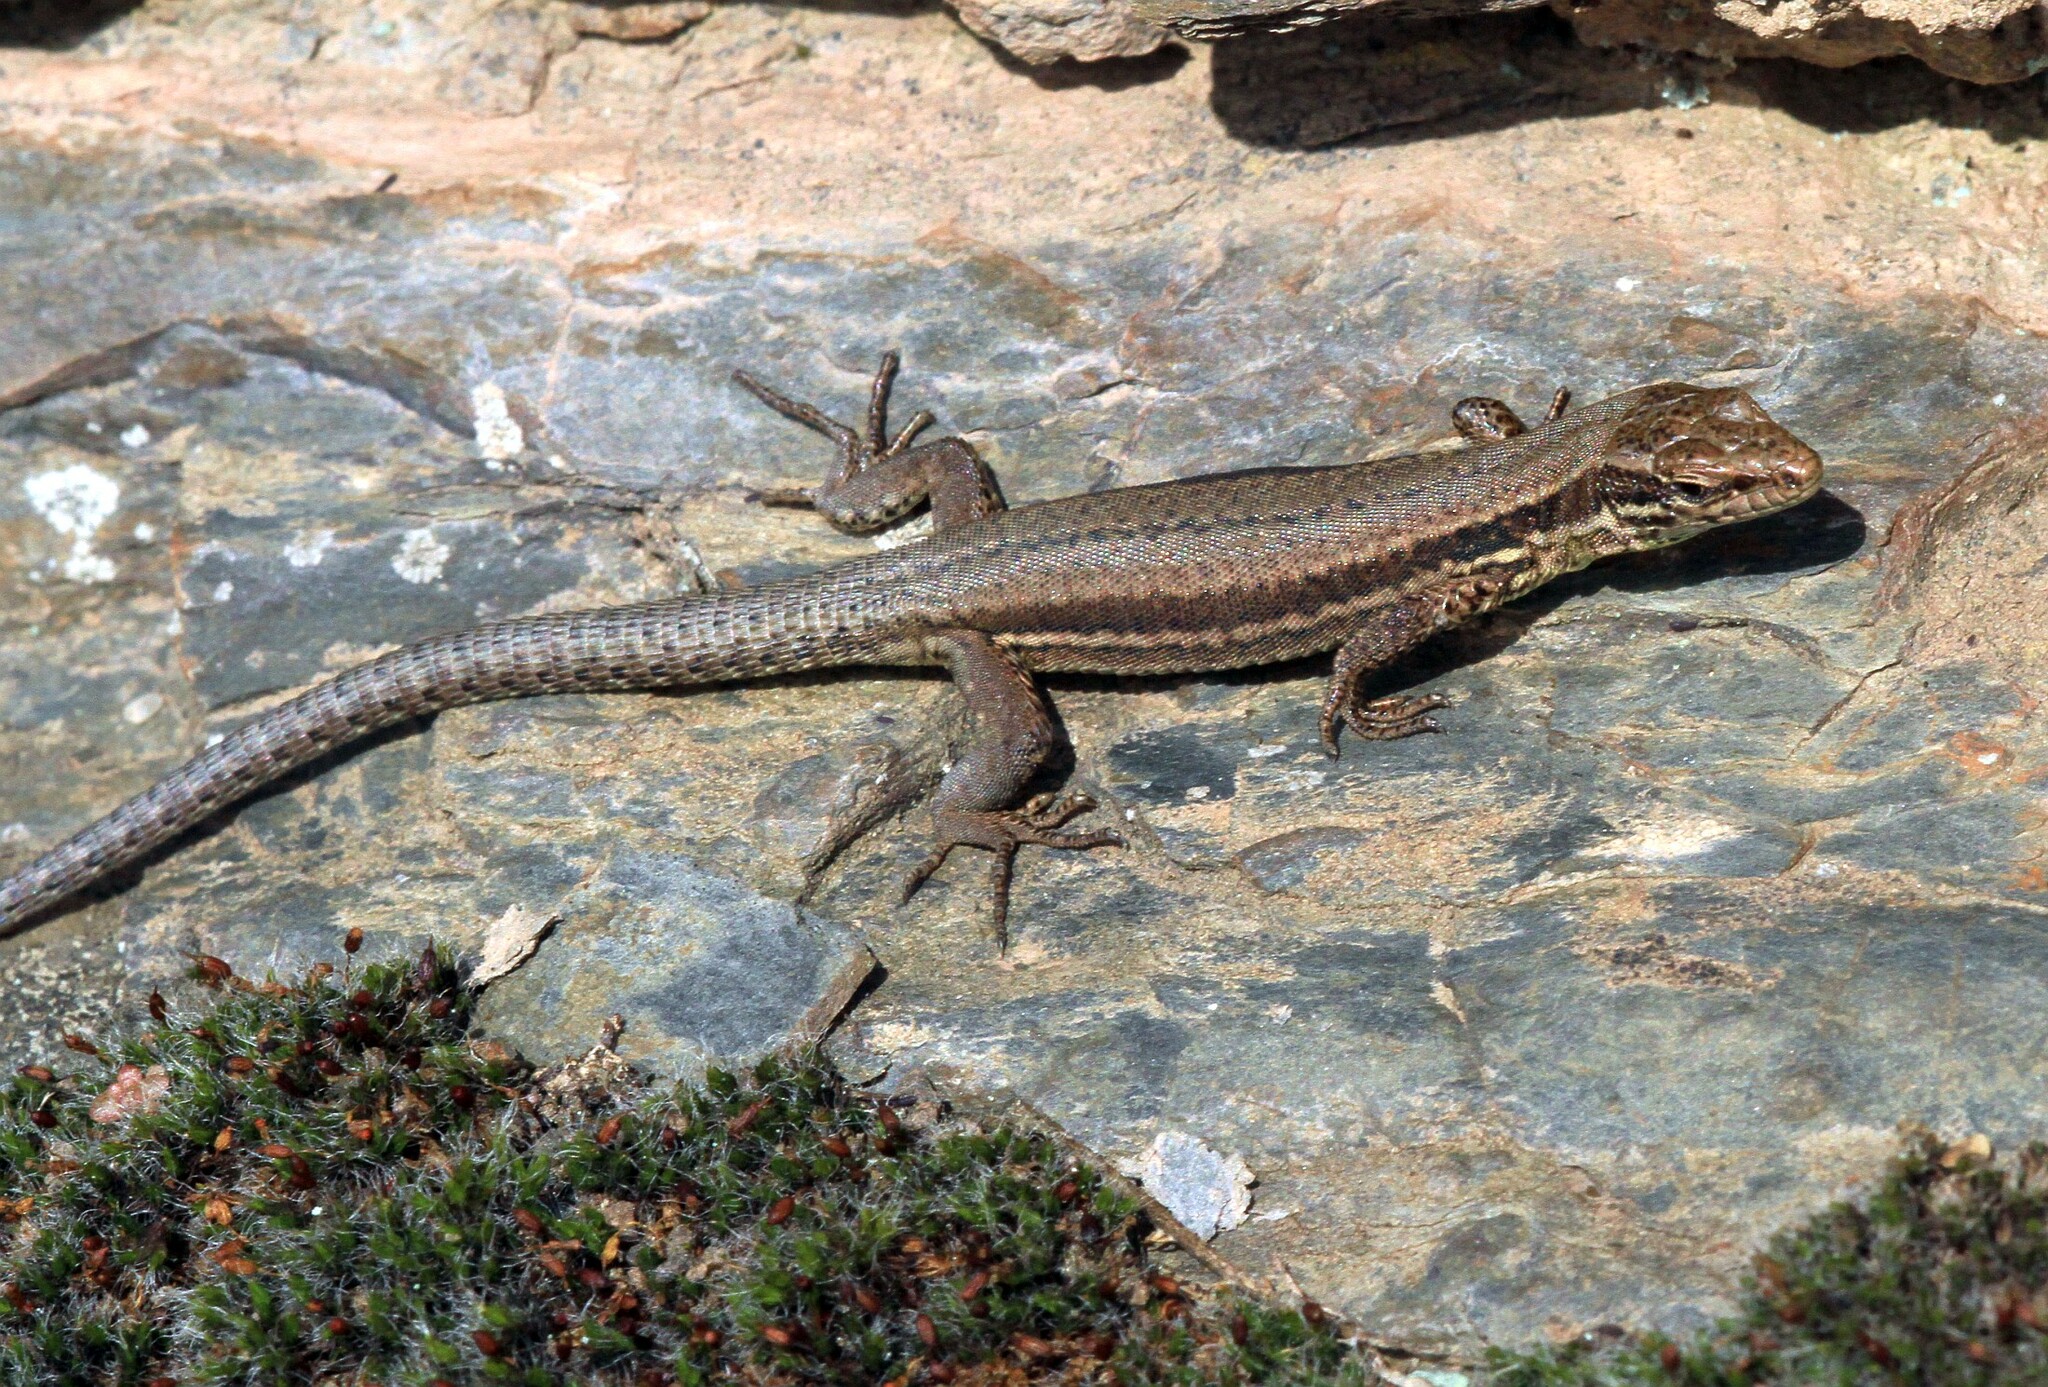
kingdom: Animalia
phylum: Chordata
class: Squamata
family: Lacertidae
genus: Podarcis
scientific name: Podarcis muralis
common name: Common wall lizard
